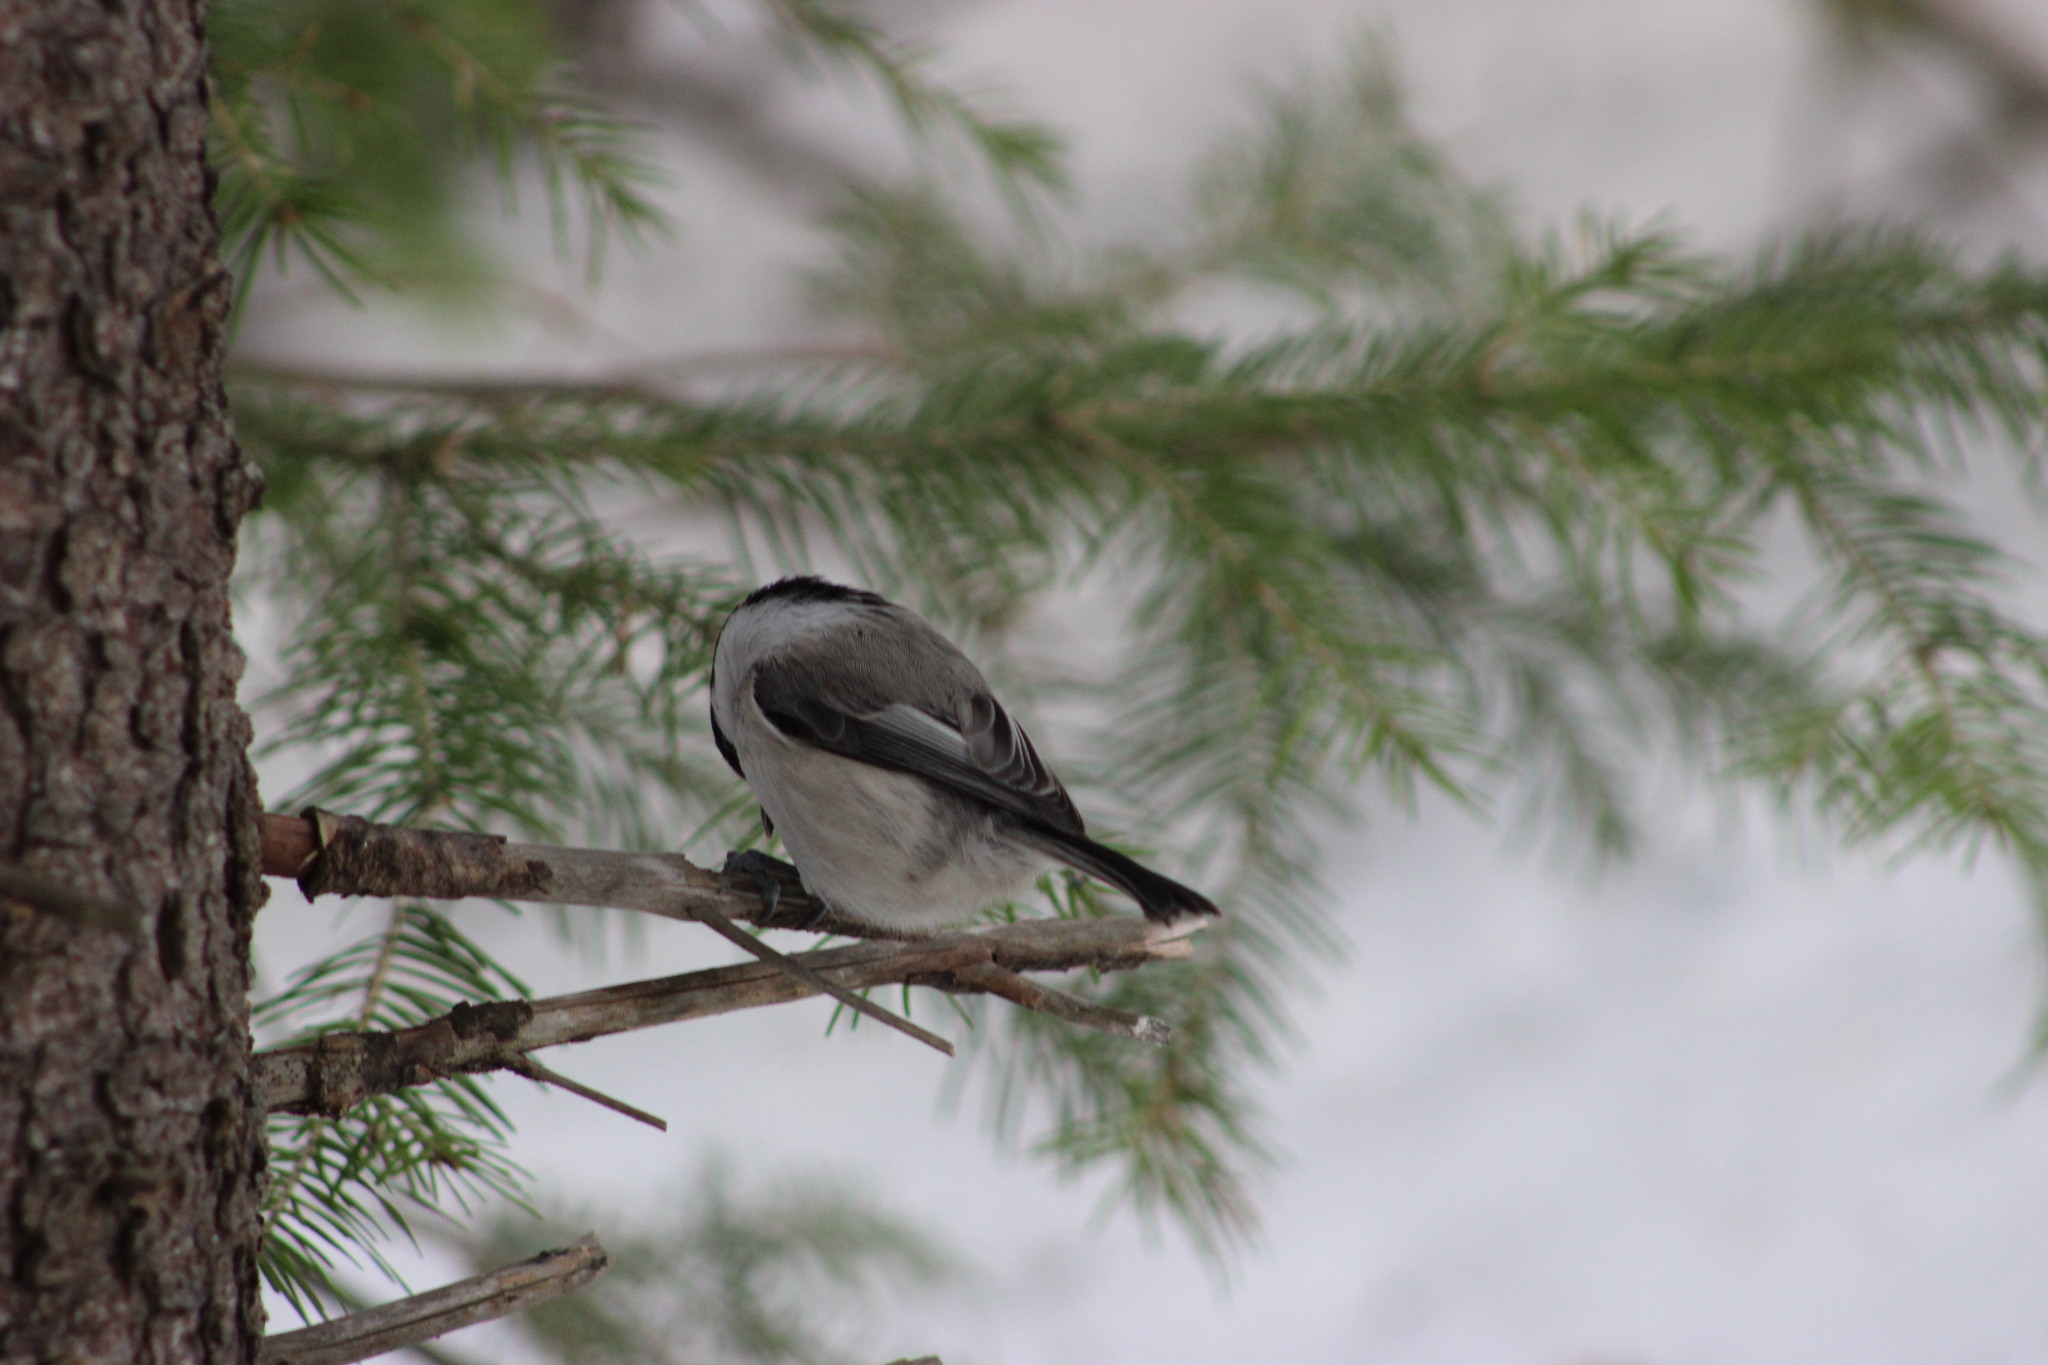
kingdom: Animalia
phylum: Chordata
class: Aves
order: Passeriformes
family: Paridae
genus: Poecile
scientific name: Poecile montanus
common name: Willow tit
